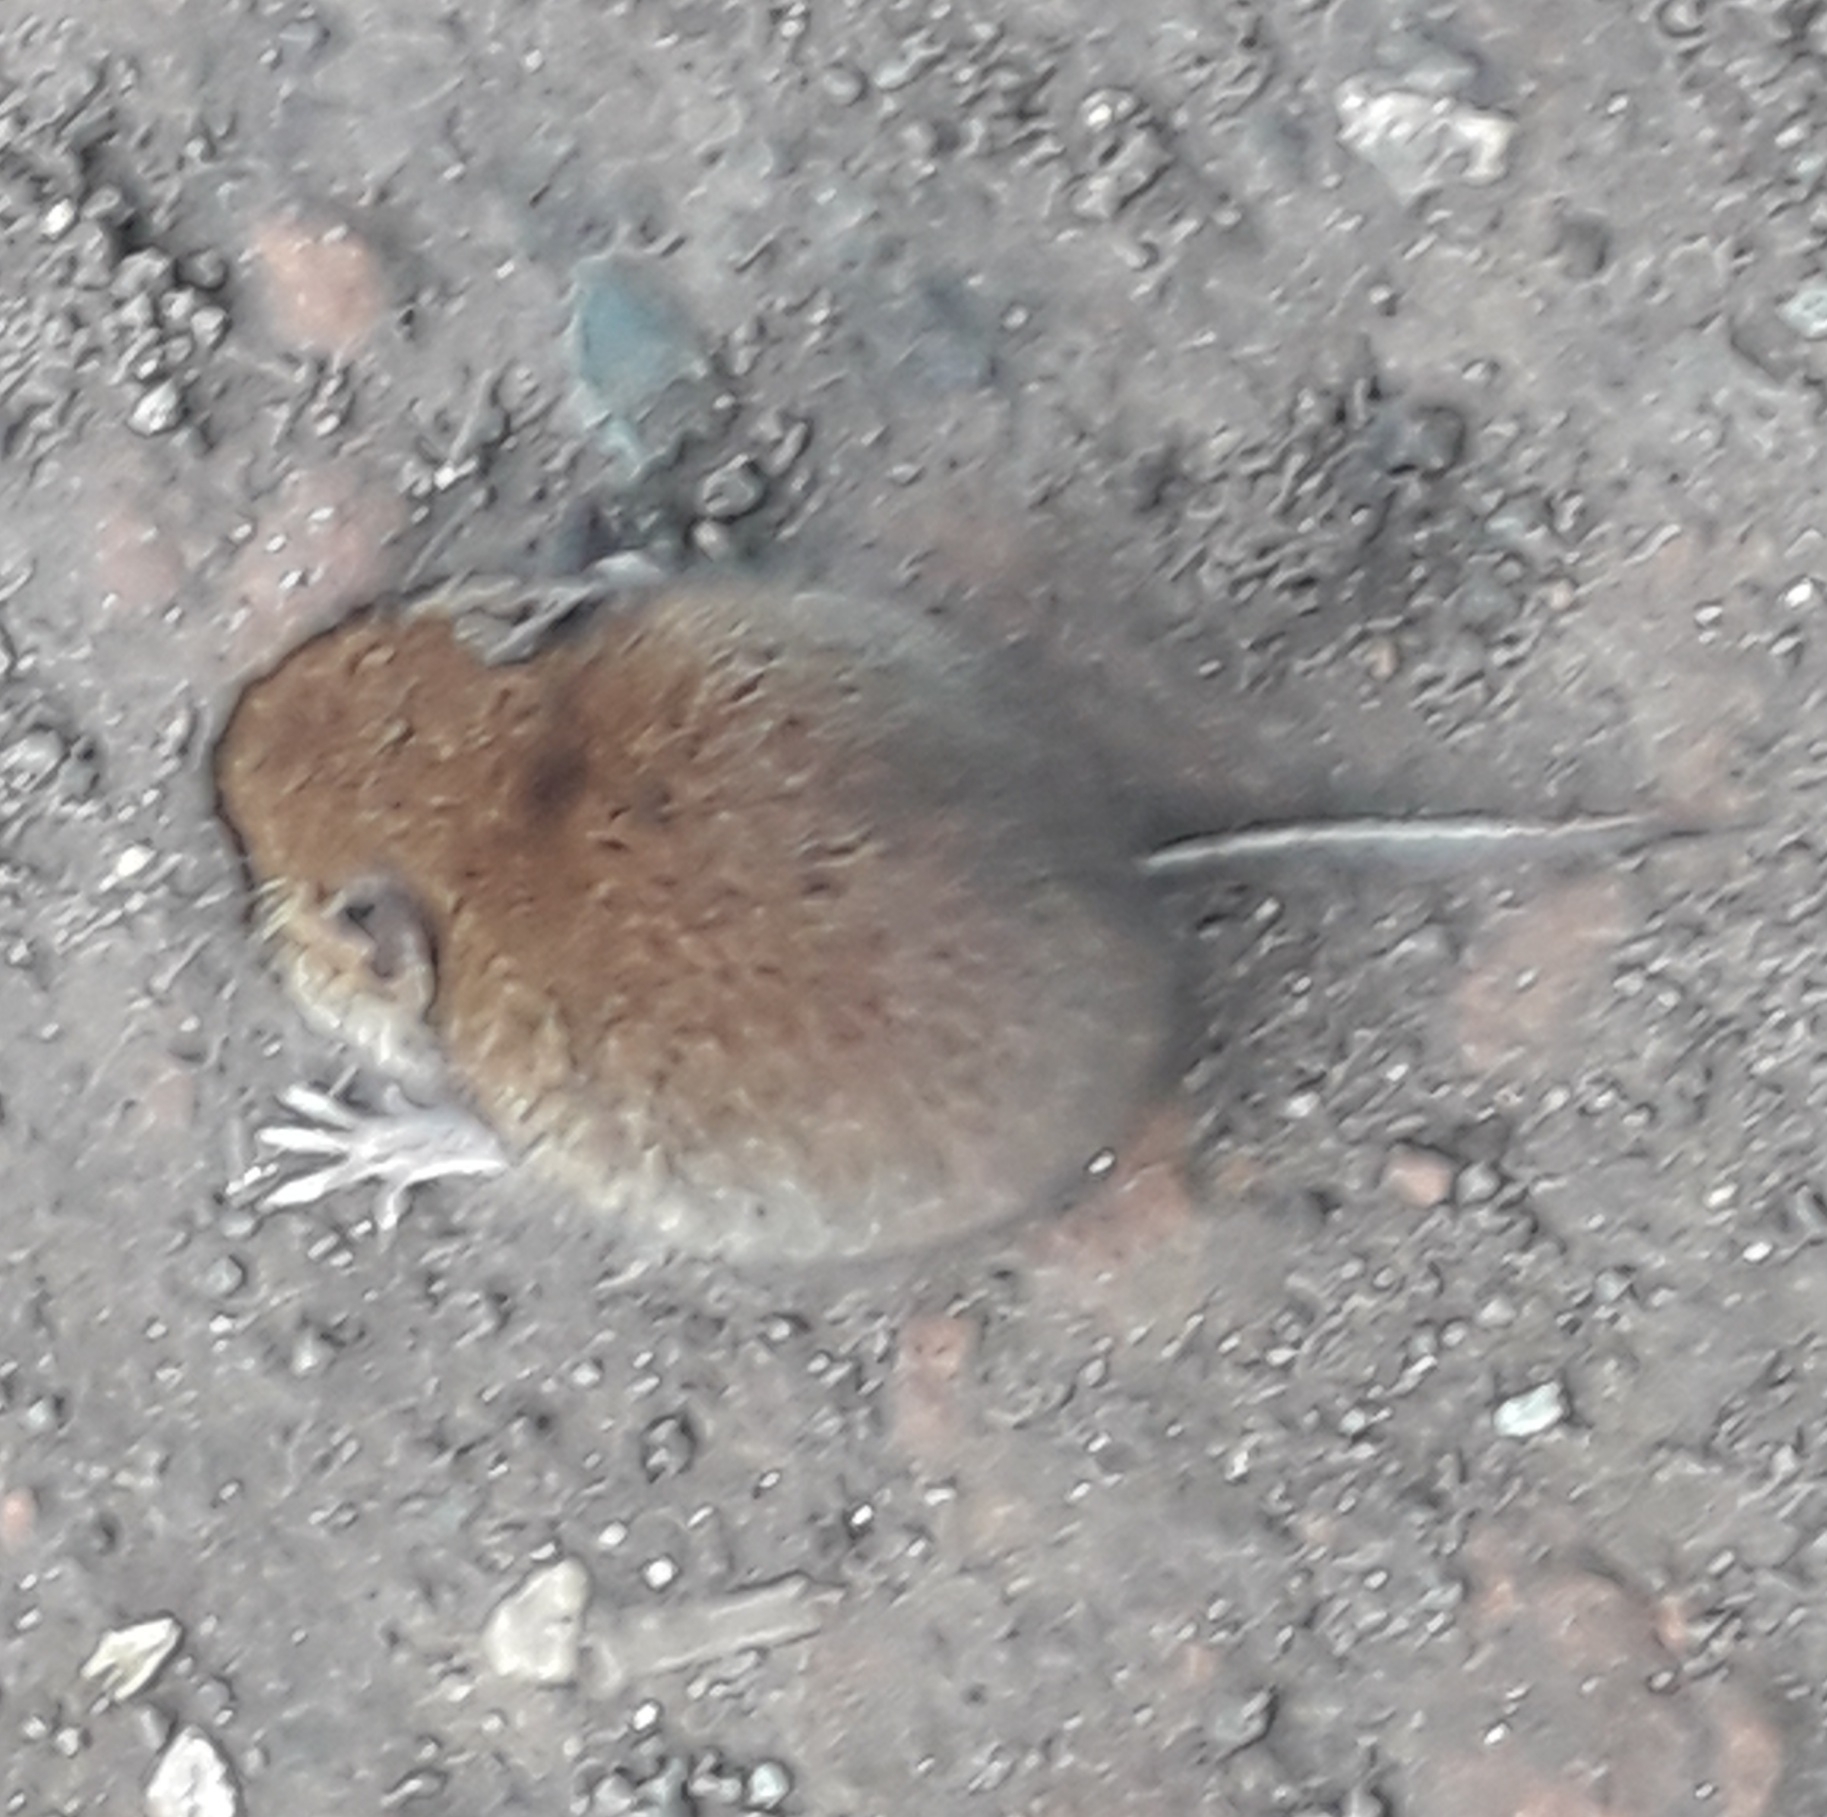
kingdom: Animalia
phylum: Chordata
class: Mammalia
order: Rodentia
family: Cricetidae
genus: Myodes
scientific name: Myodes glareolus
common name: Bank vole
